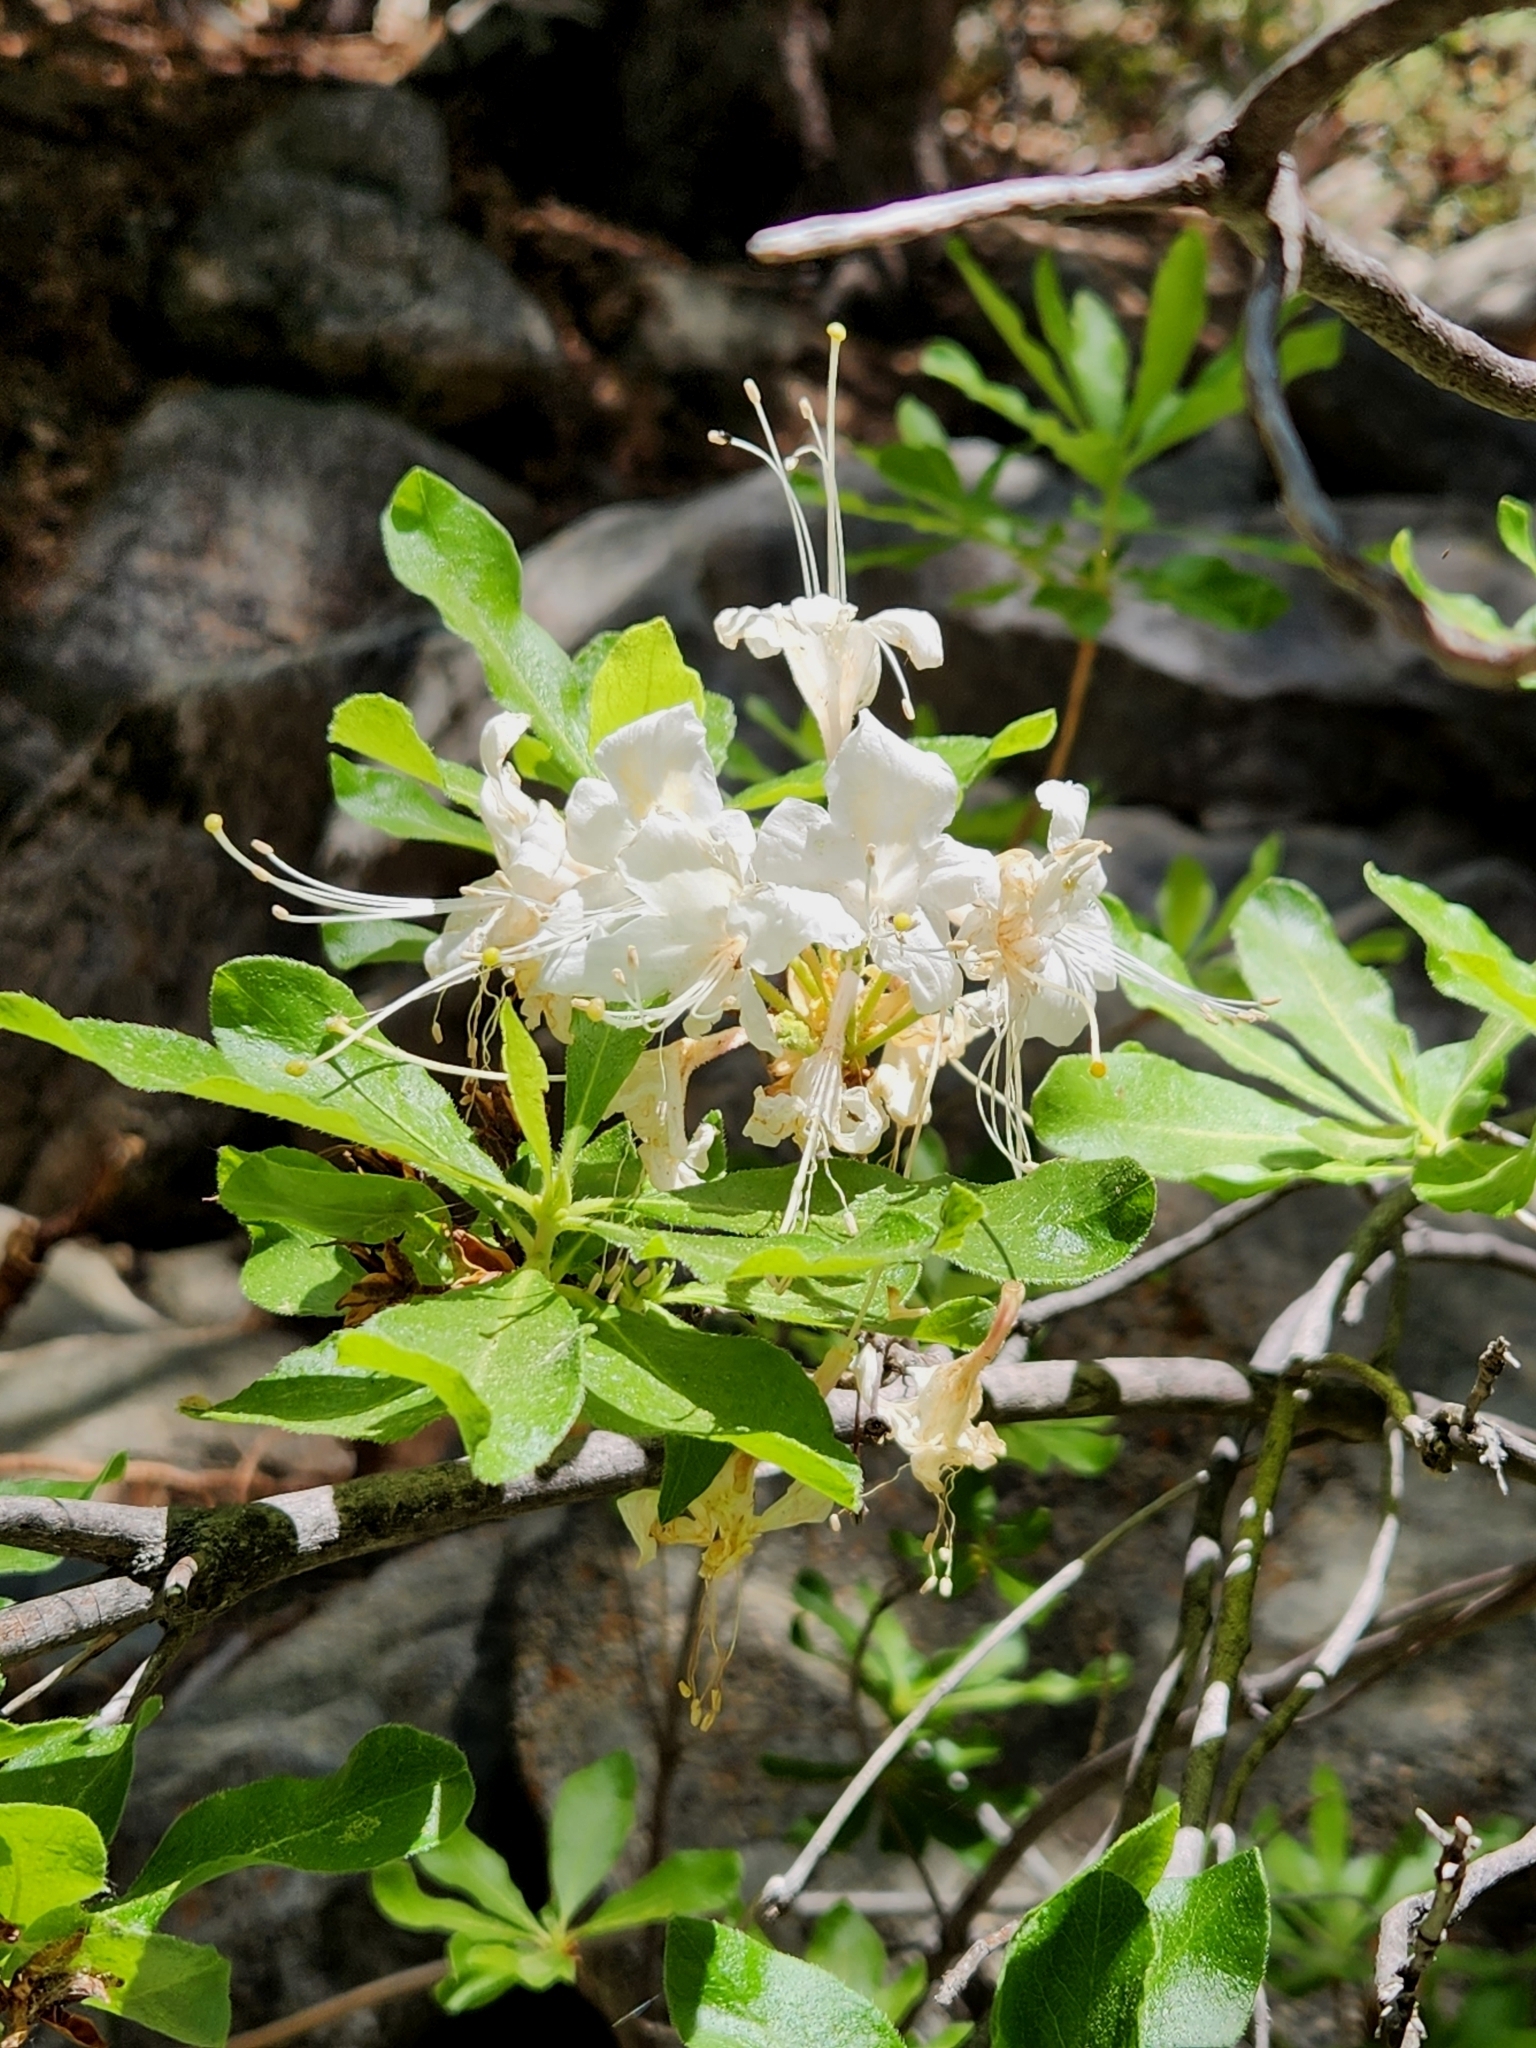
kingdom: Plantae
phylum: Tracheophyta
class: Magnoliopsida
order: Ericales
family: Ericaceae
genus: Rhododendron
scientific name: Rhododendron occidentale
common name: Western azalea
